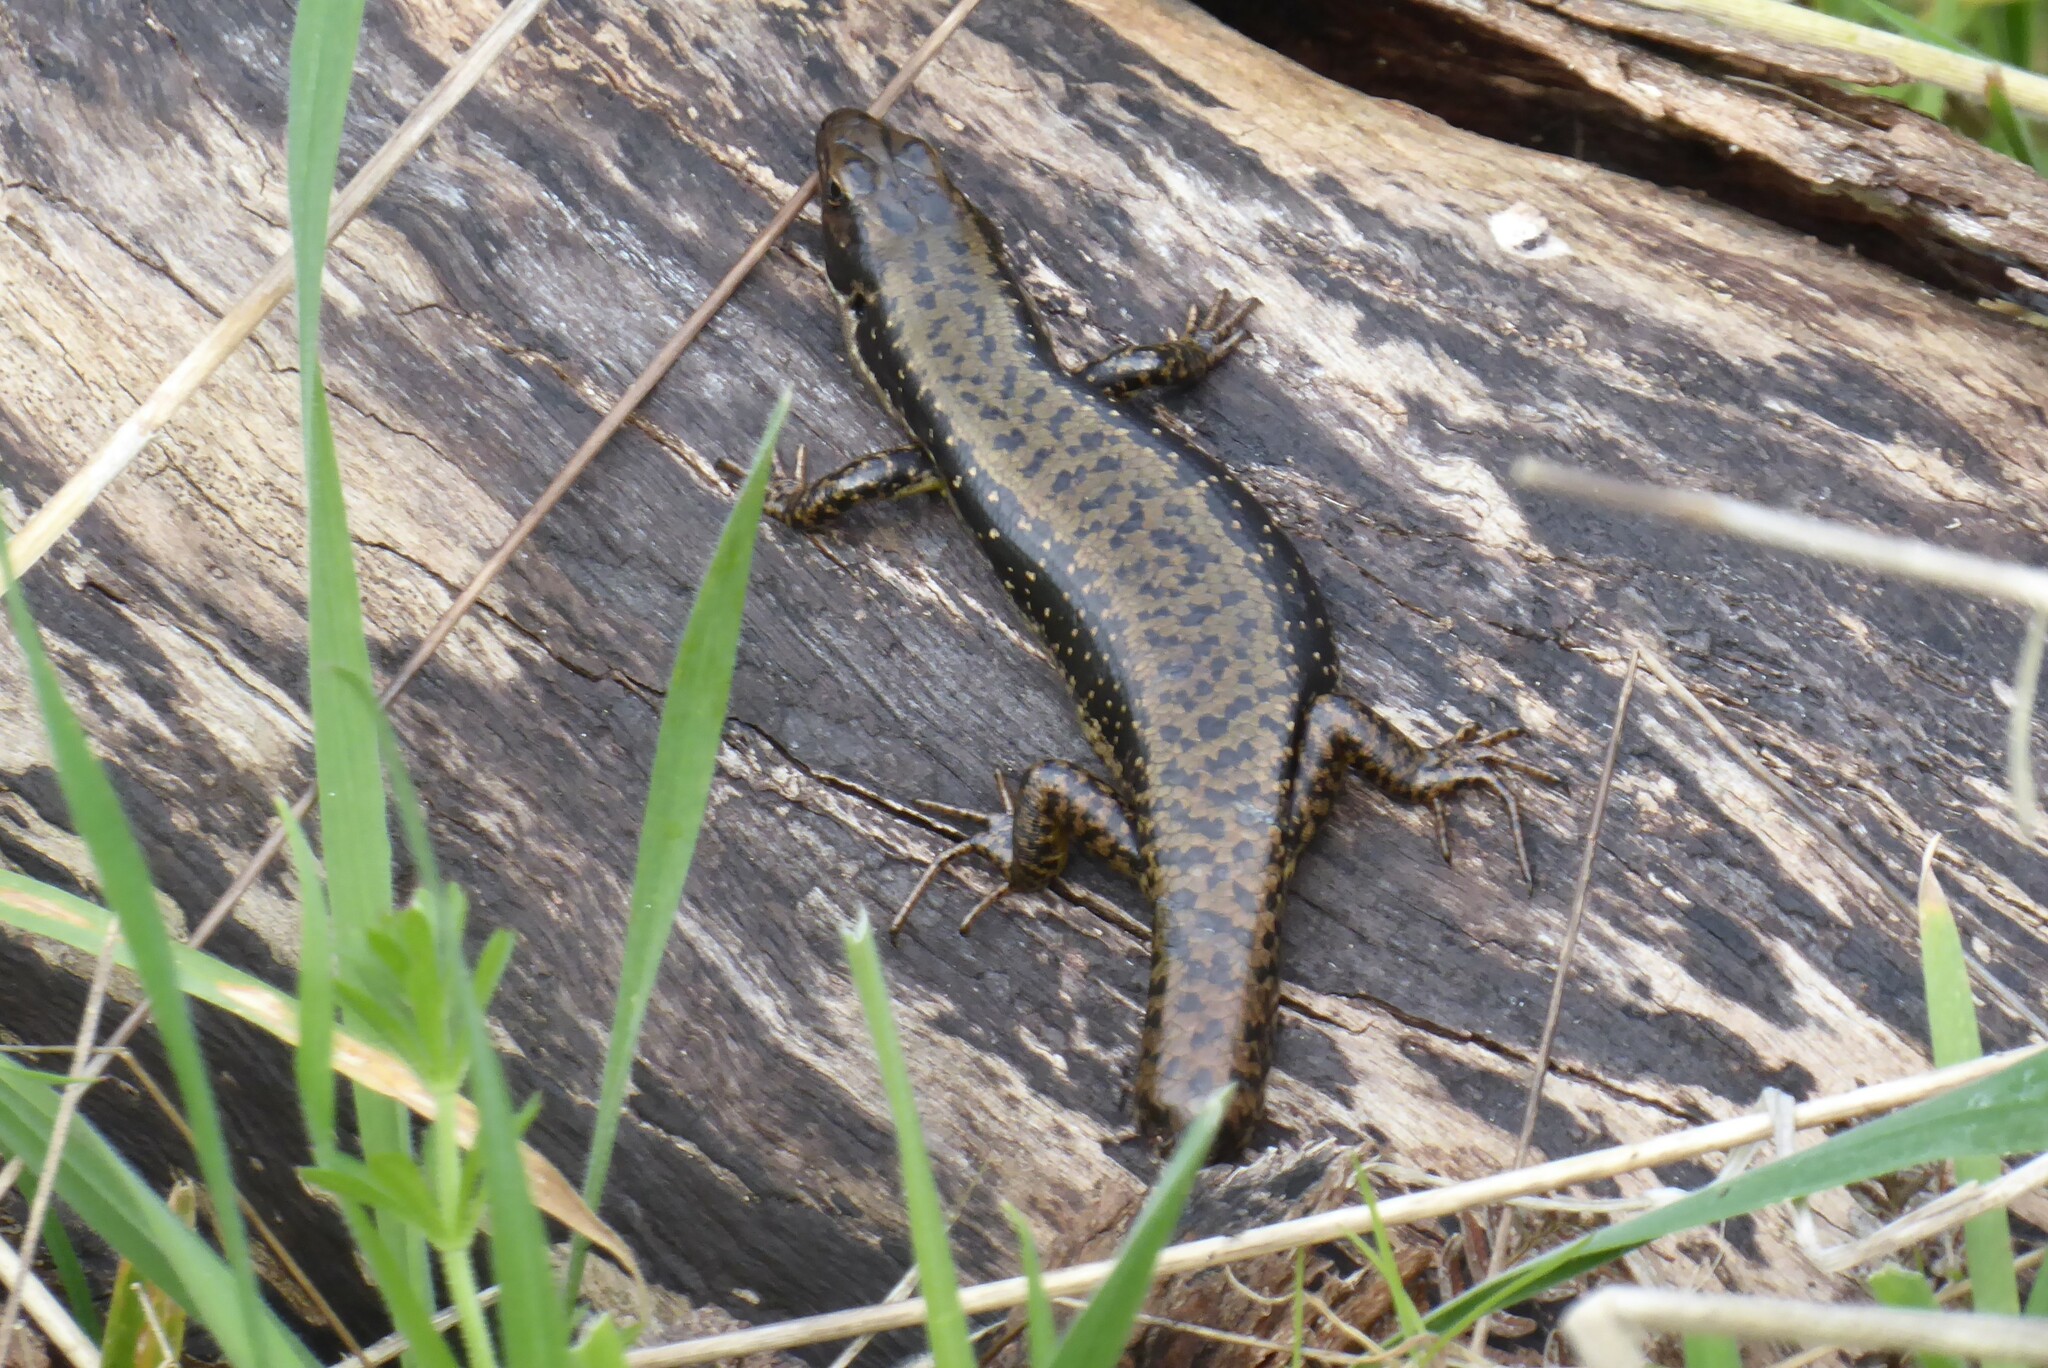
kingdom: Animalia
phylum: Chordata
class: Squamata
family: Scincidae
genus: Eulamprus
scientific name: Eulamprus tympanum
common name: Cool-temperate water-skink
